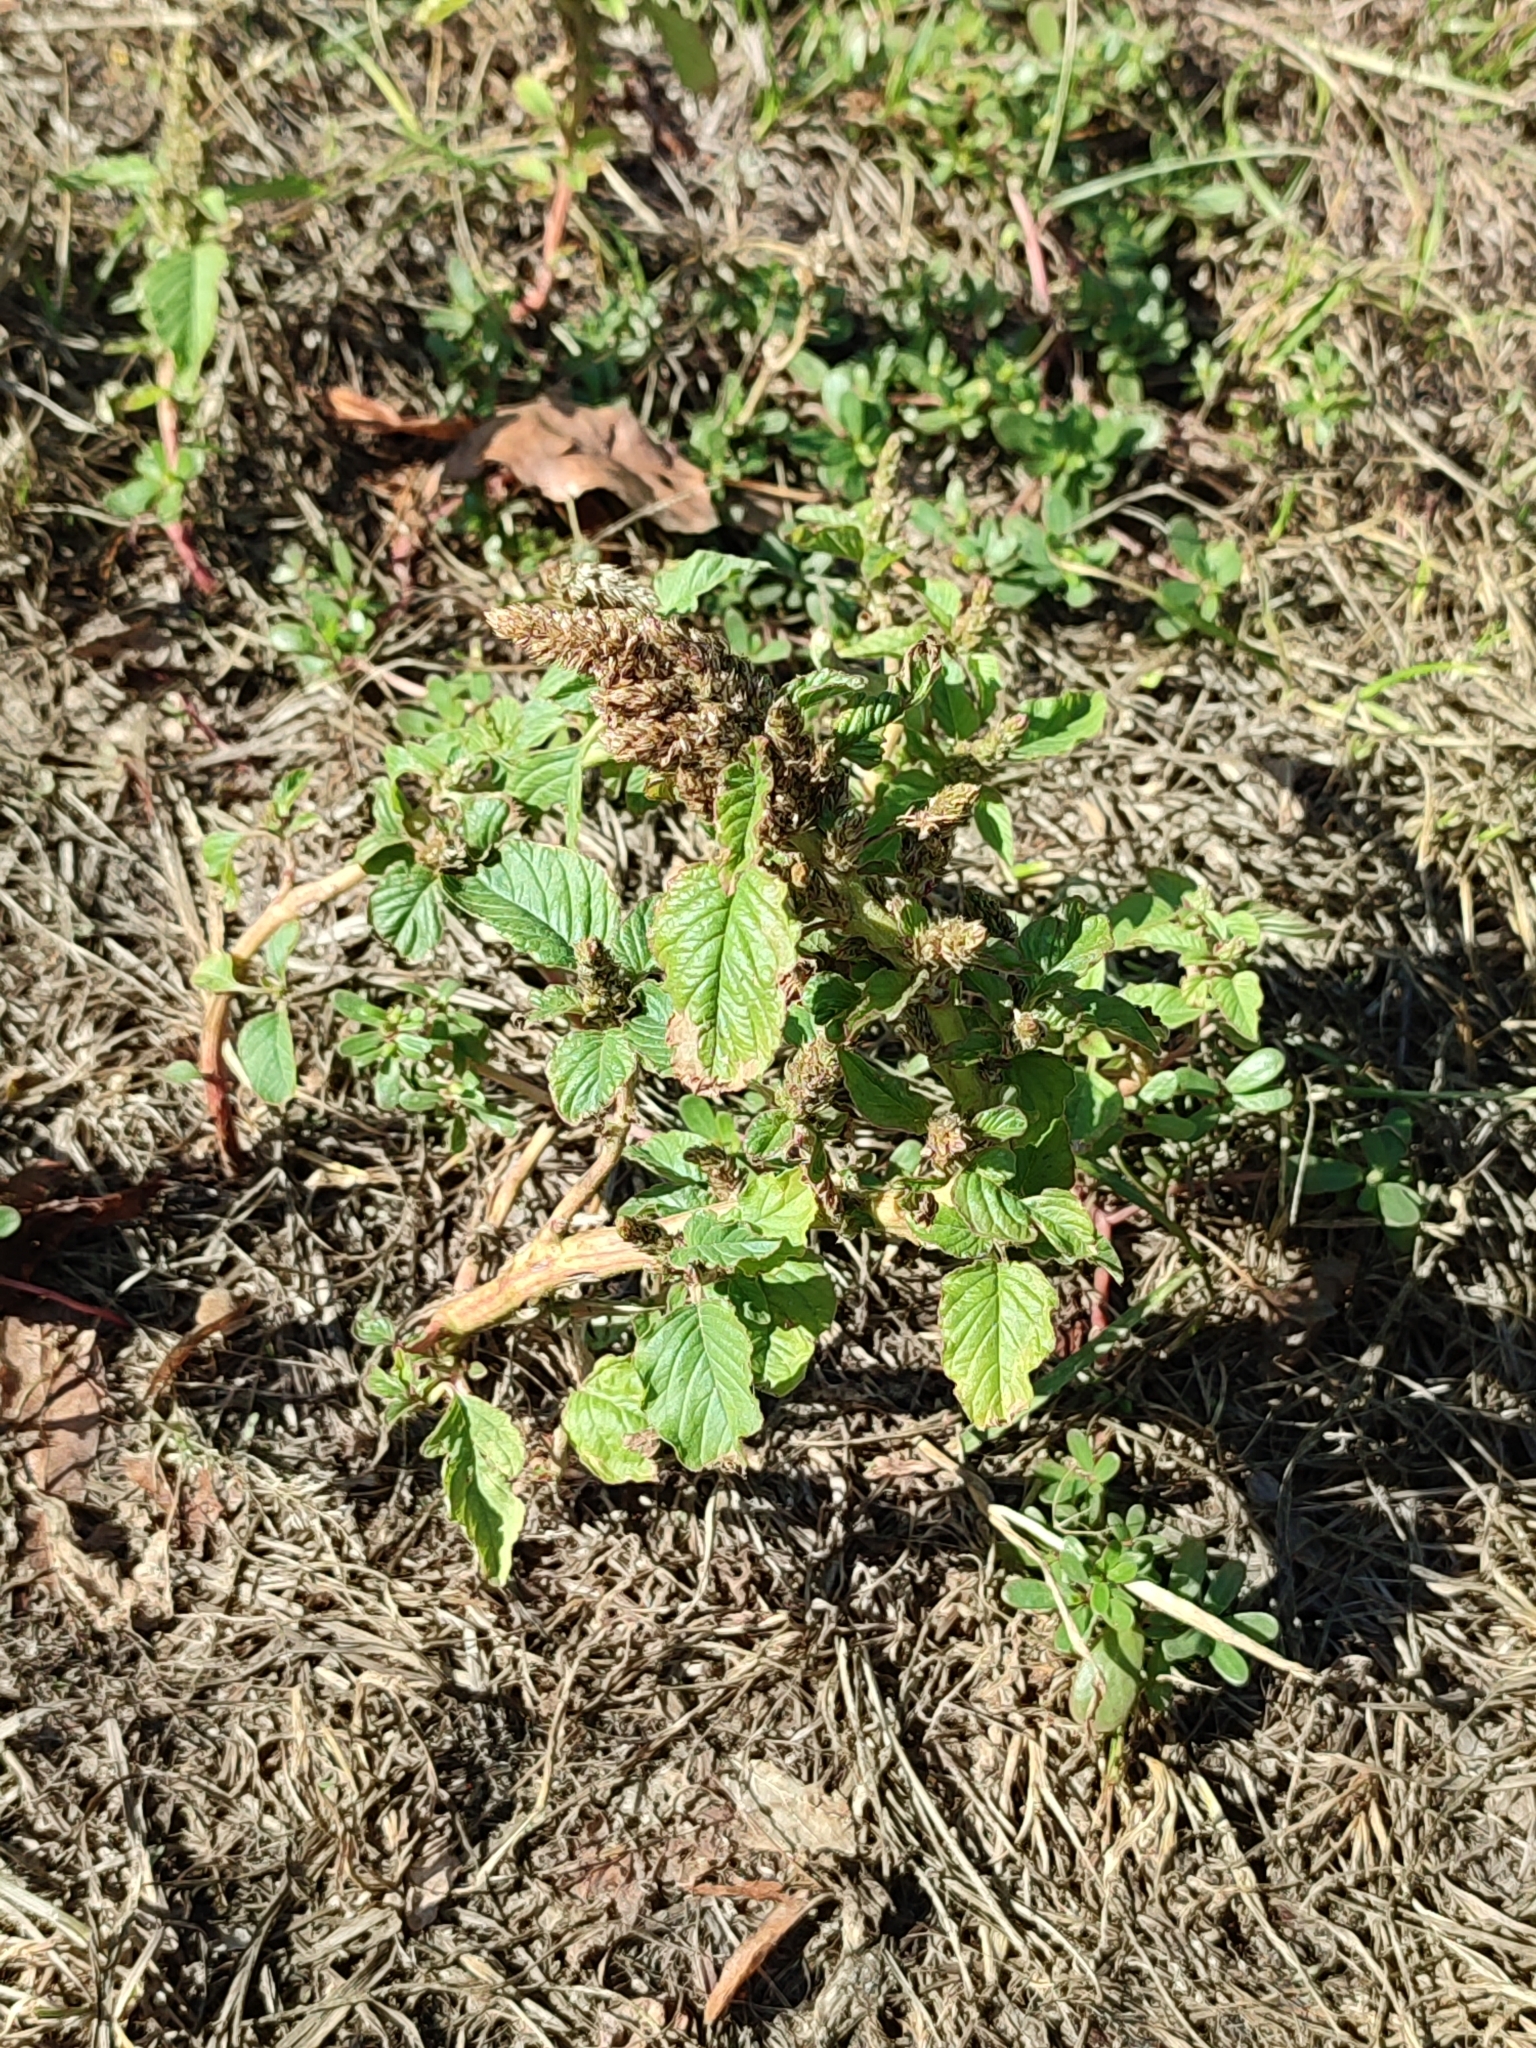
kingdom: Plantae
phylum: Tracheophyta
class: Magnoliopsida
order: Caryophyllales
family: Amaranthaceae
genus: Amaranthus
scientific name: Amaranthus retroflexus
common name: Redroot amaranth
